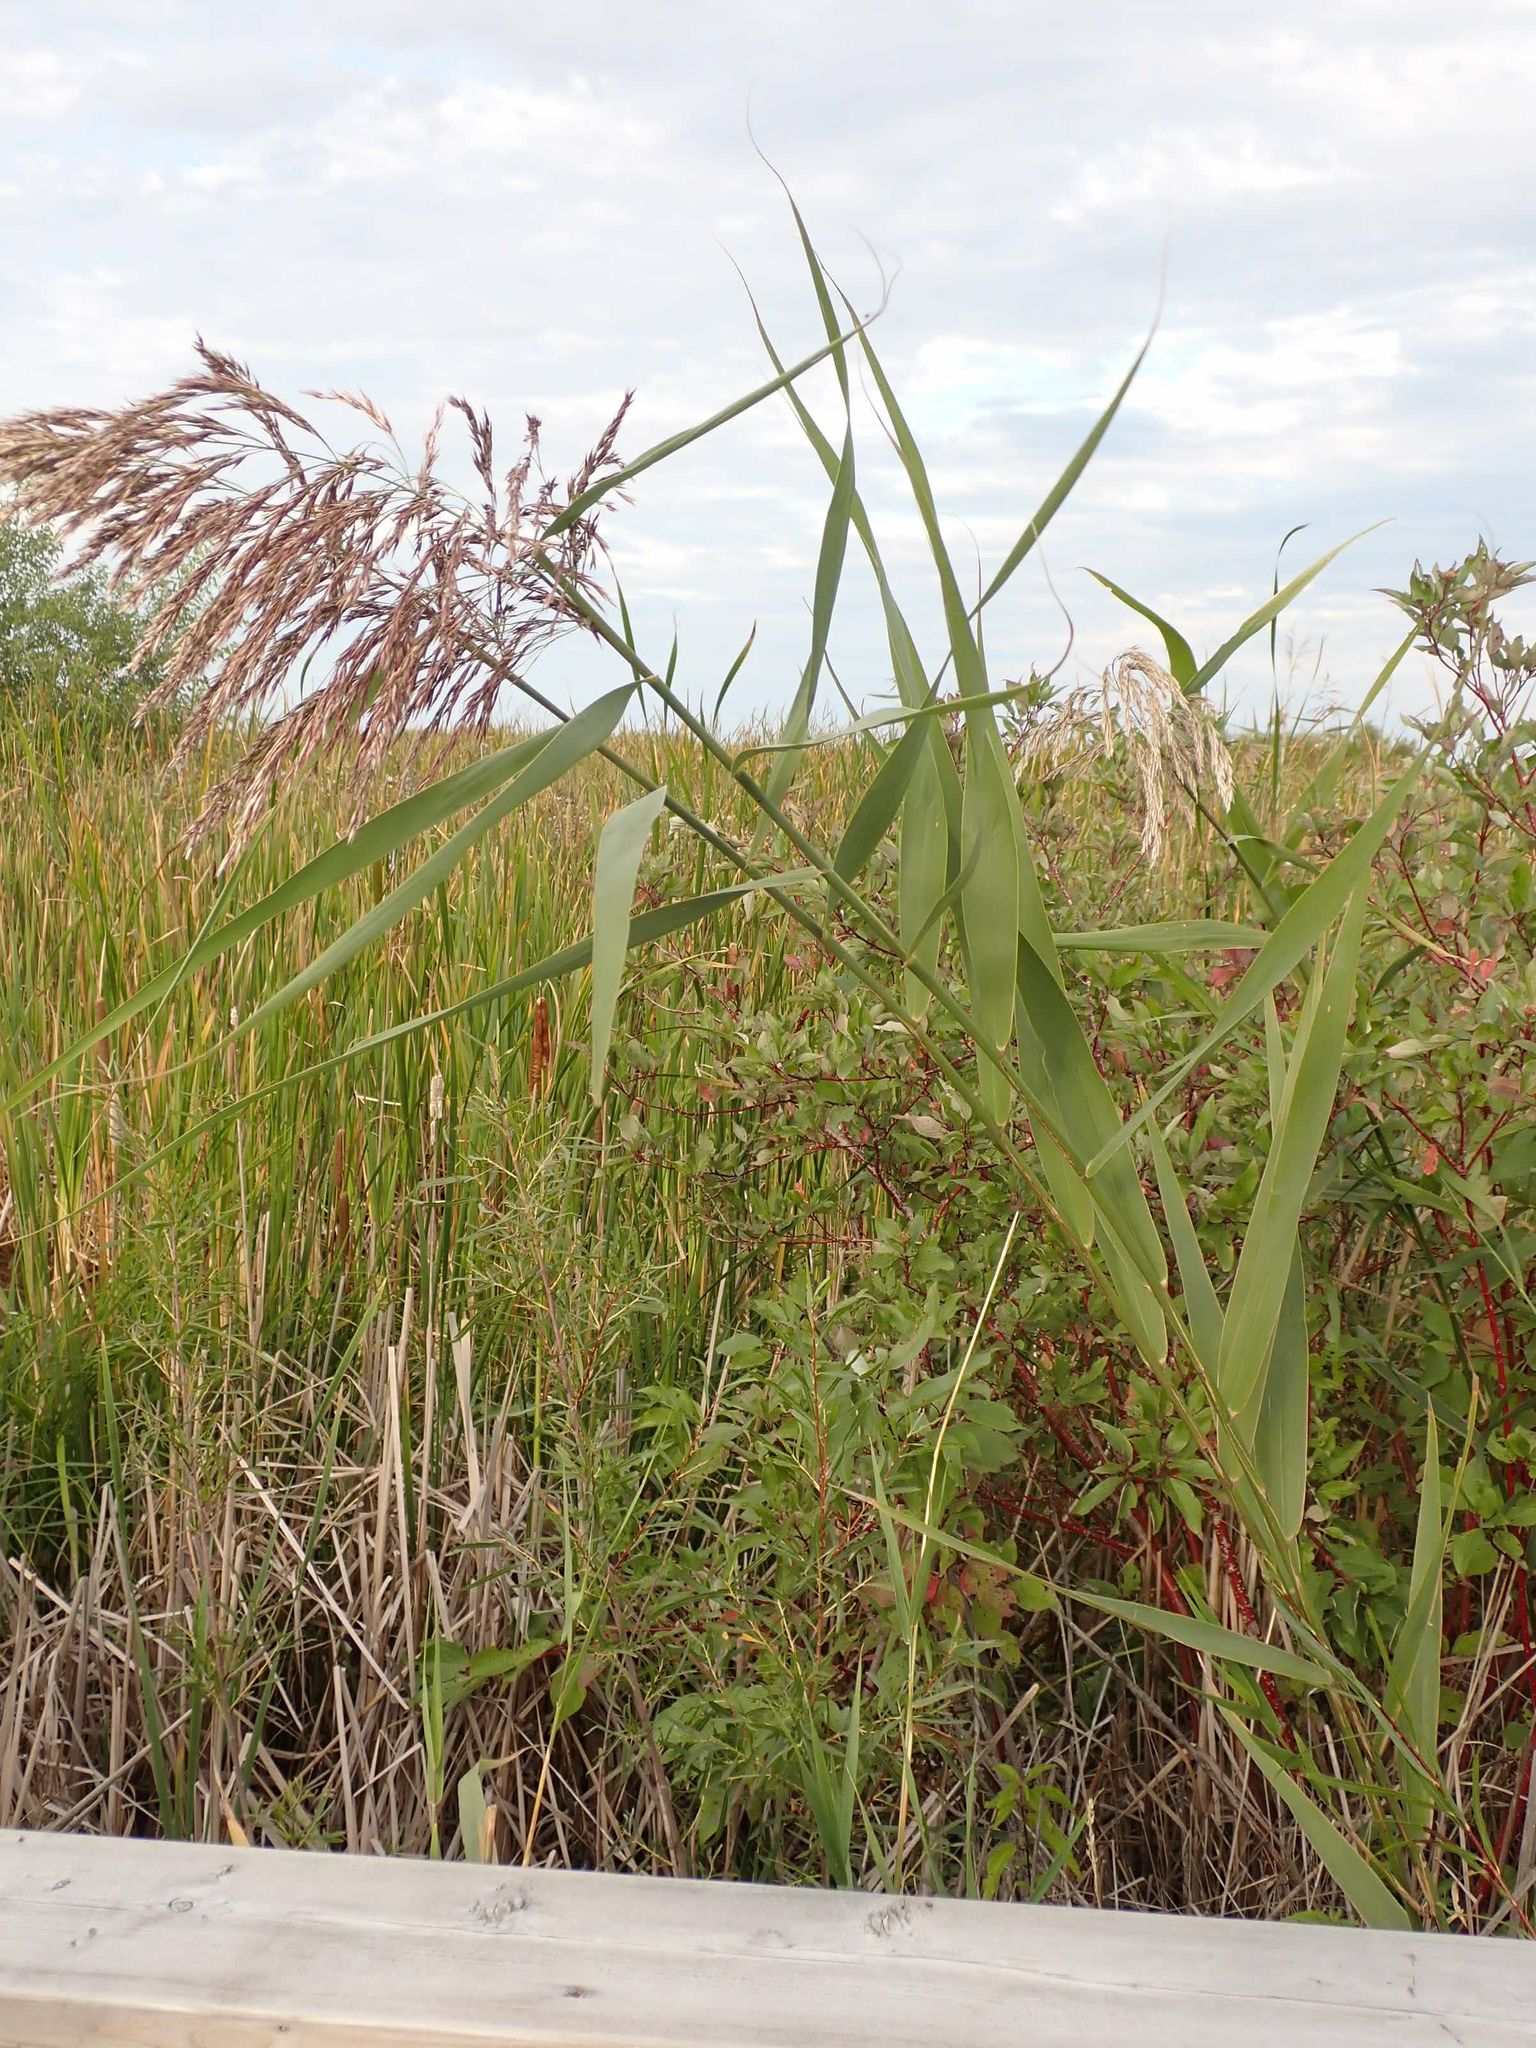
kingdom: Plantae
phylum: Tracheophyta
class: Liliopsida
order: Poales
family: Poaceae
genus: Phragmites
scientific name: Phragmites australis
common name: Common reed
